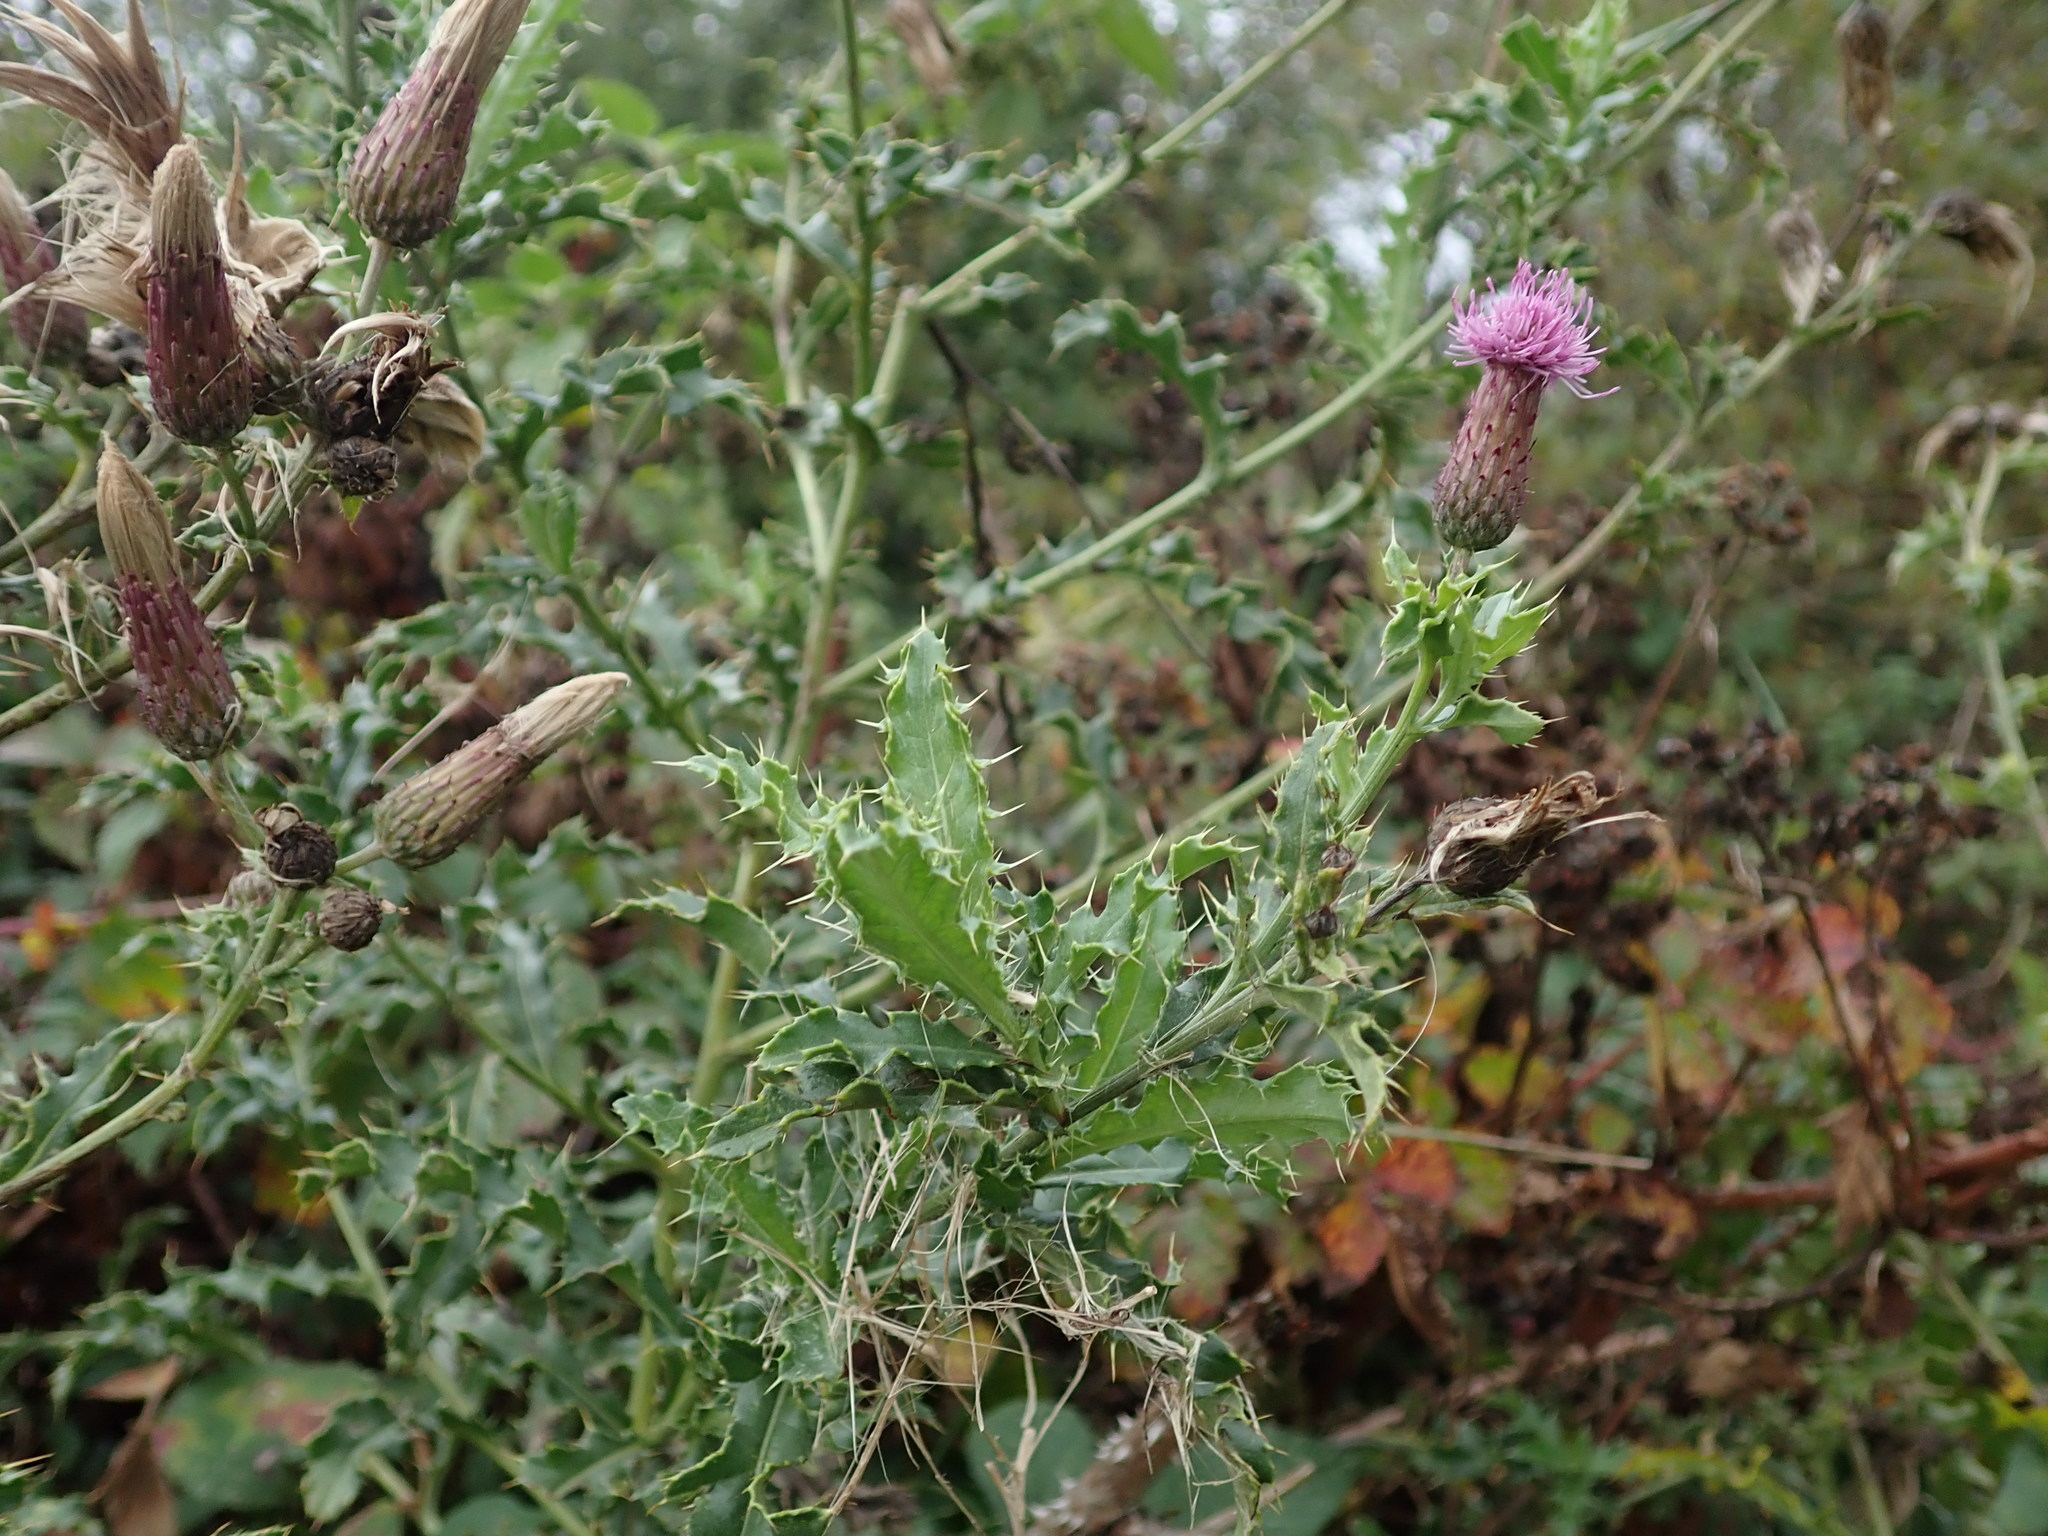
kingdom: Plantae
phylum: Tracheophyta
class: Magnoliopsida
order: Asterales
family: Asteraceae
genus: Cirsium
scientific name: Cirsium arvense
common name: Creeping thistle
